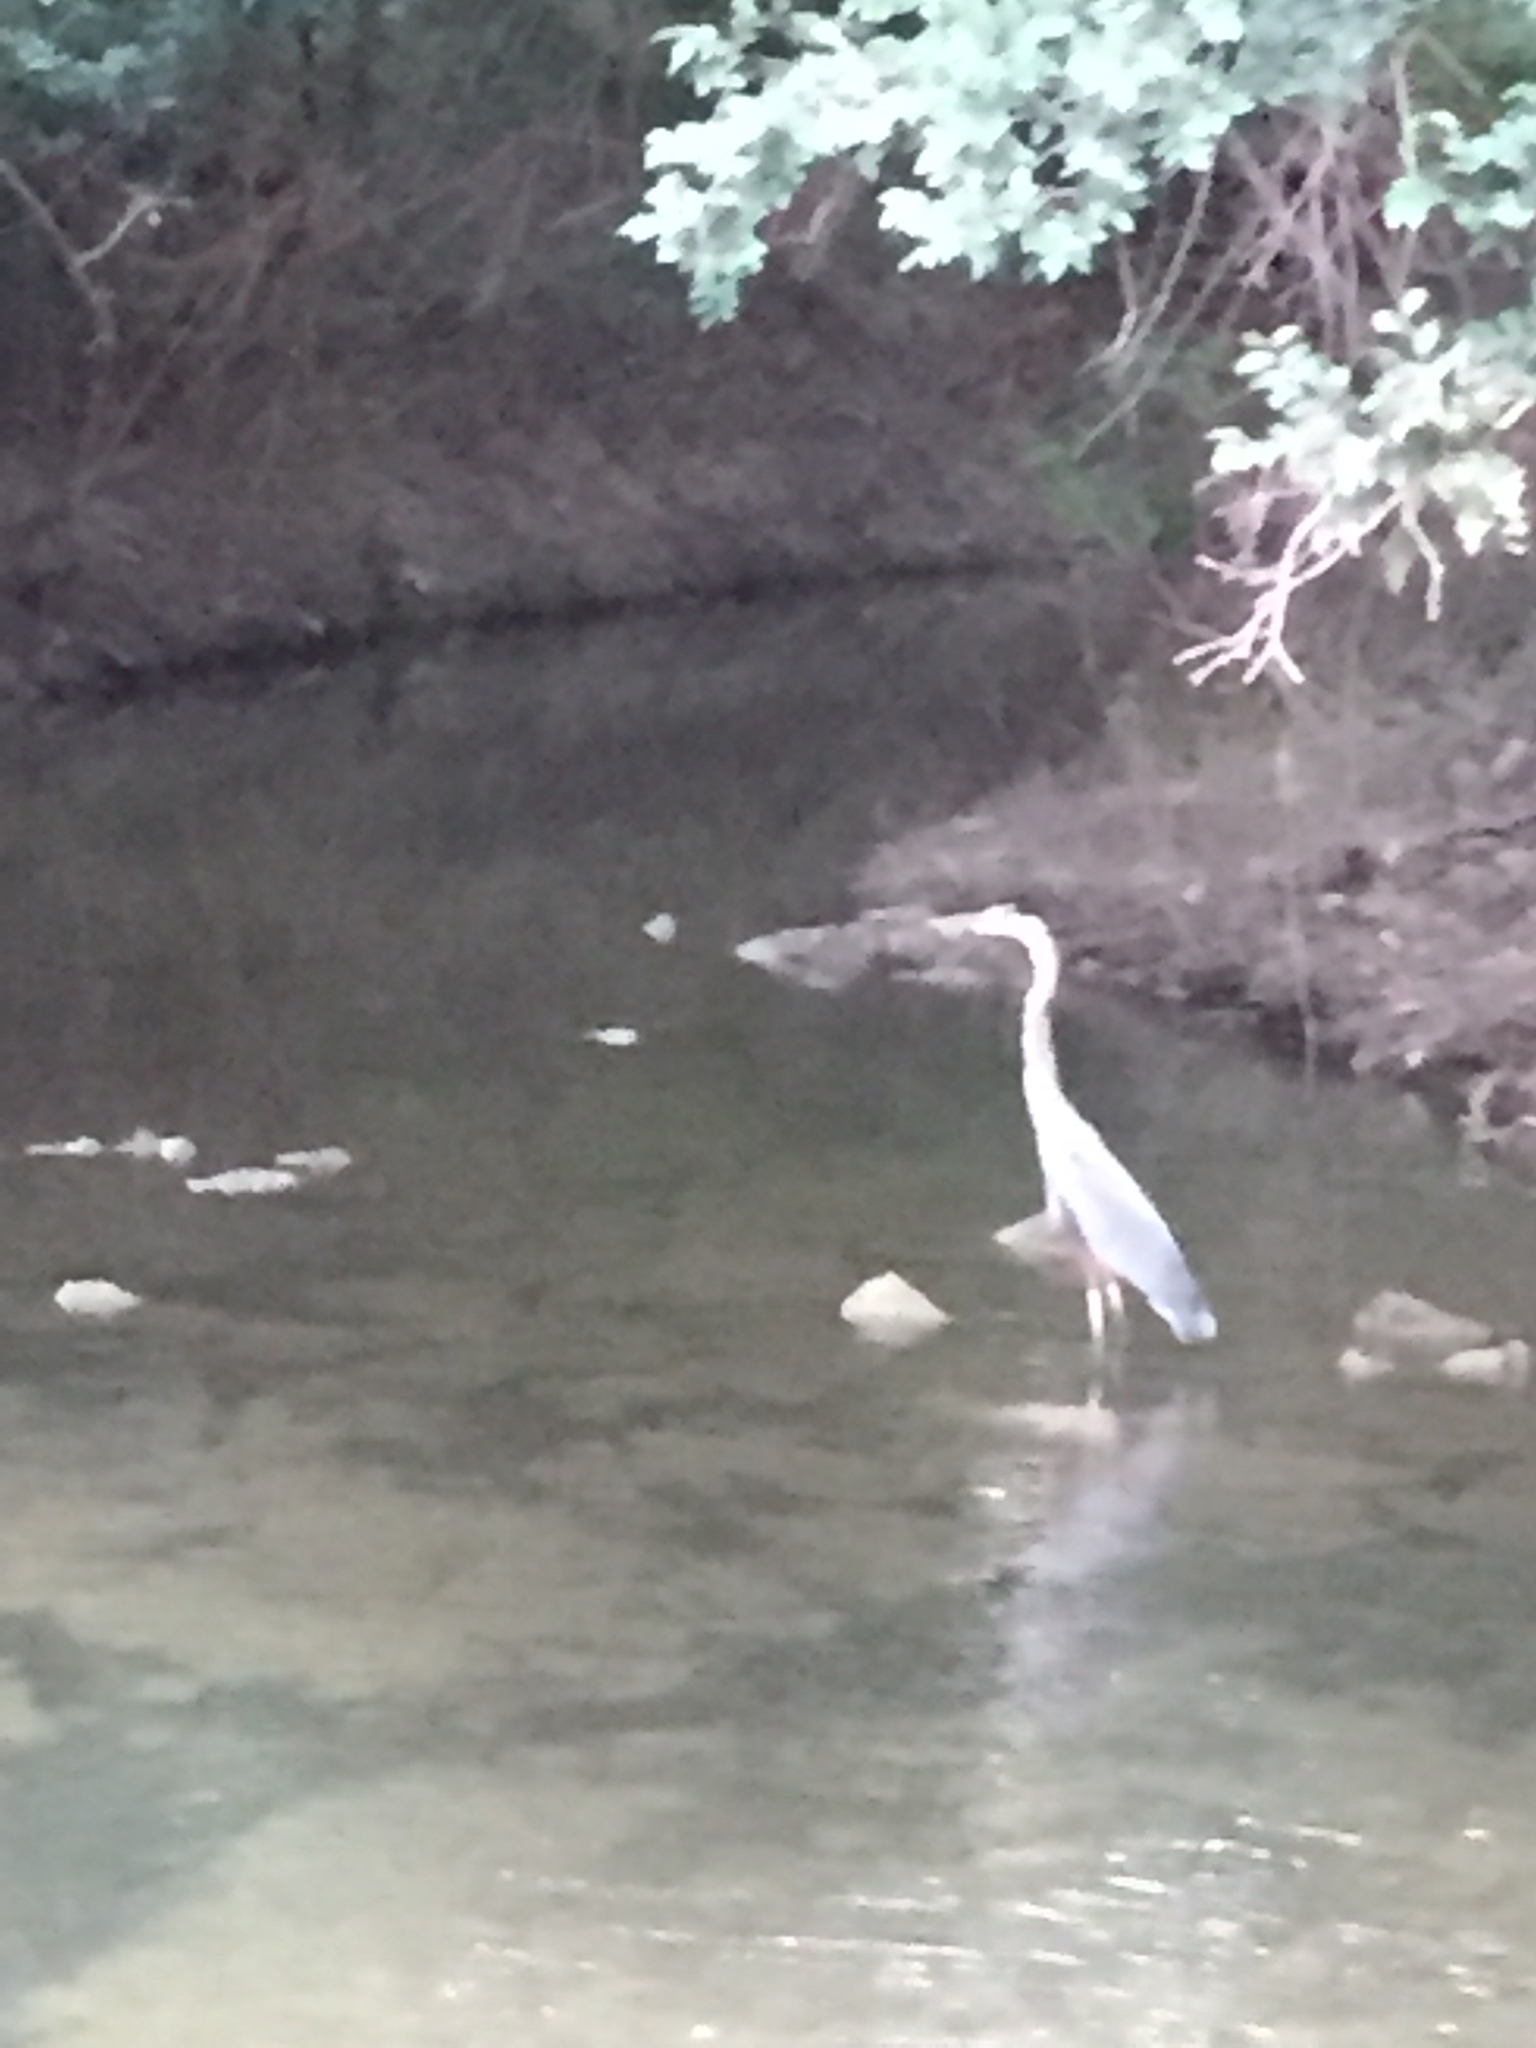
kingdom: Animalia
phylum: Chordata
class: Aves
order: Pelecaniformes
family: Ardeidae
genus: Ardea
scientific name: Ardea herodias
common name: Great blue heron
